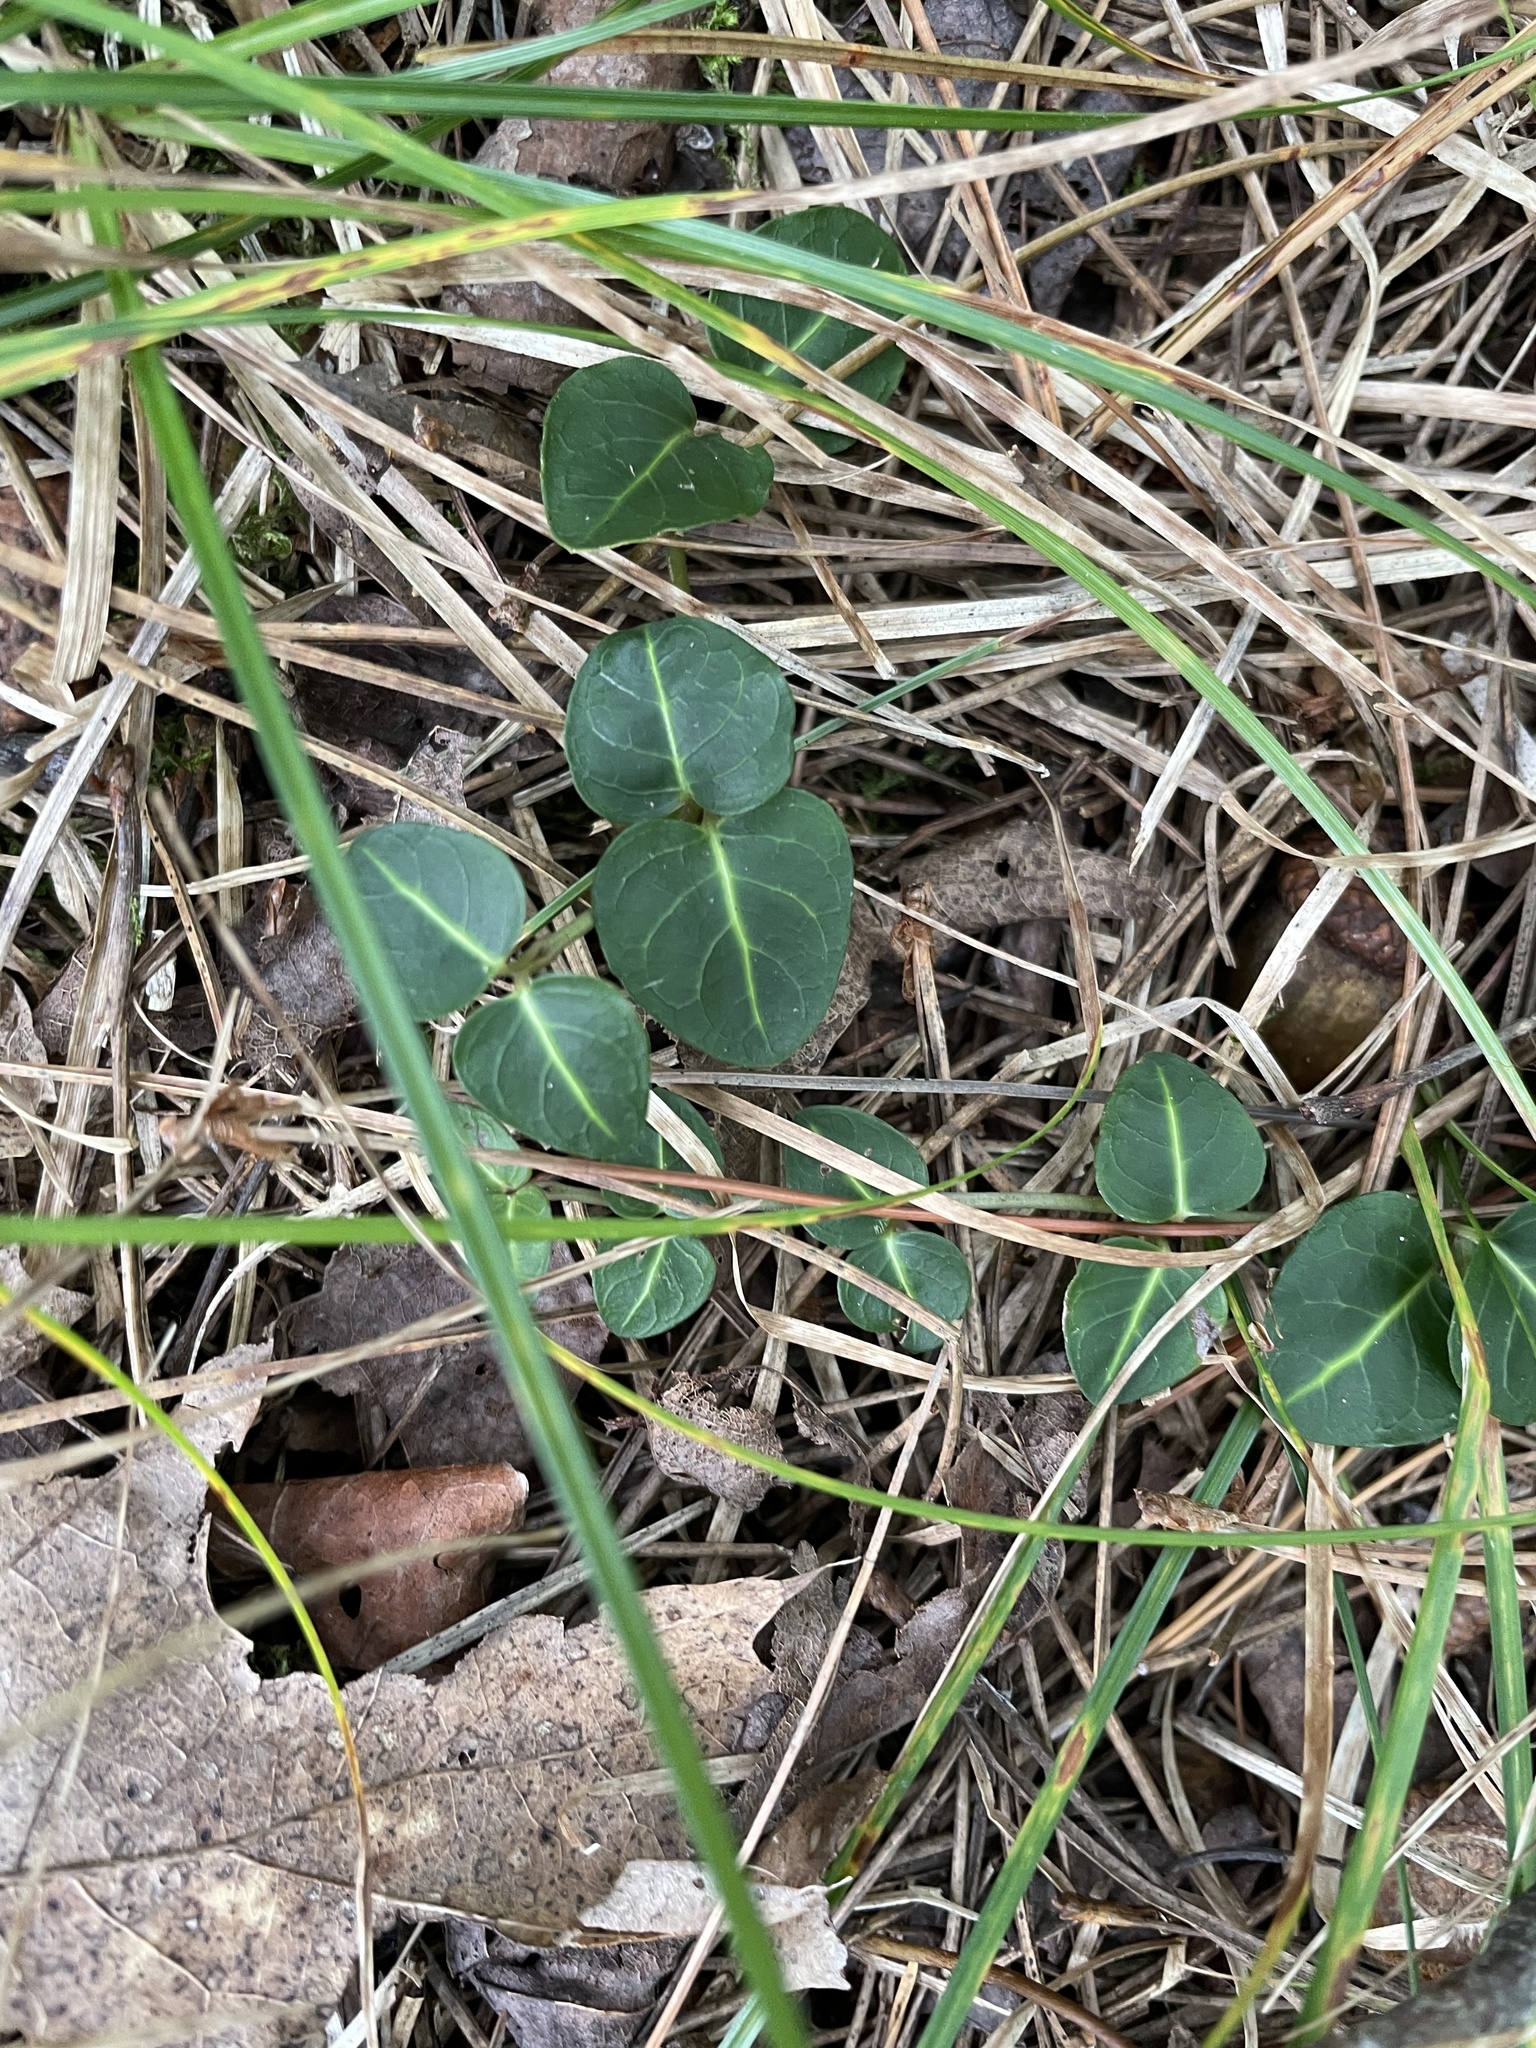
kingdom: Plantae
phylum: Tracheophyta
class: Magnoliopsida
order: Gentianales
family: Rubiaceae
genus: Mitchella
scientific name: Mitchella repens
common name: Partridge-berry
